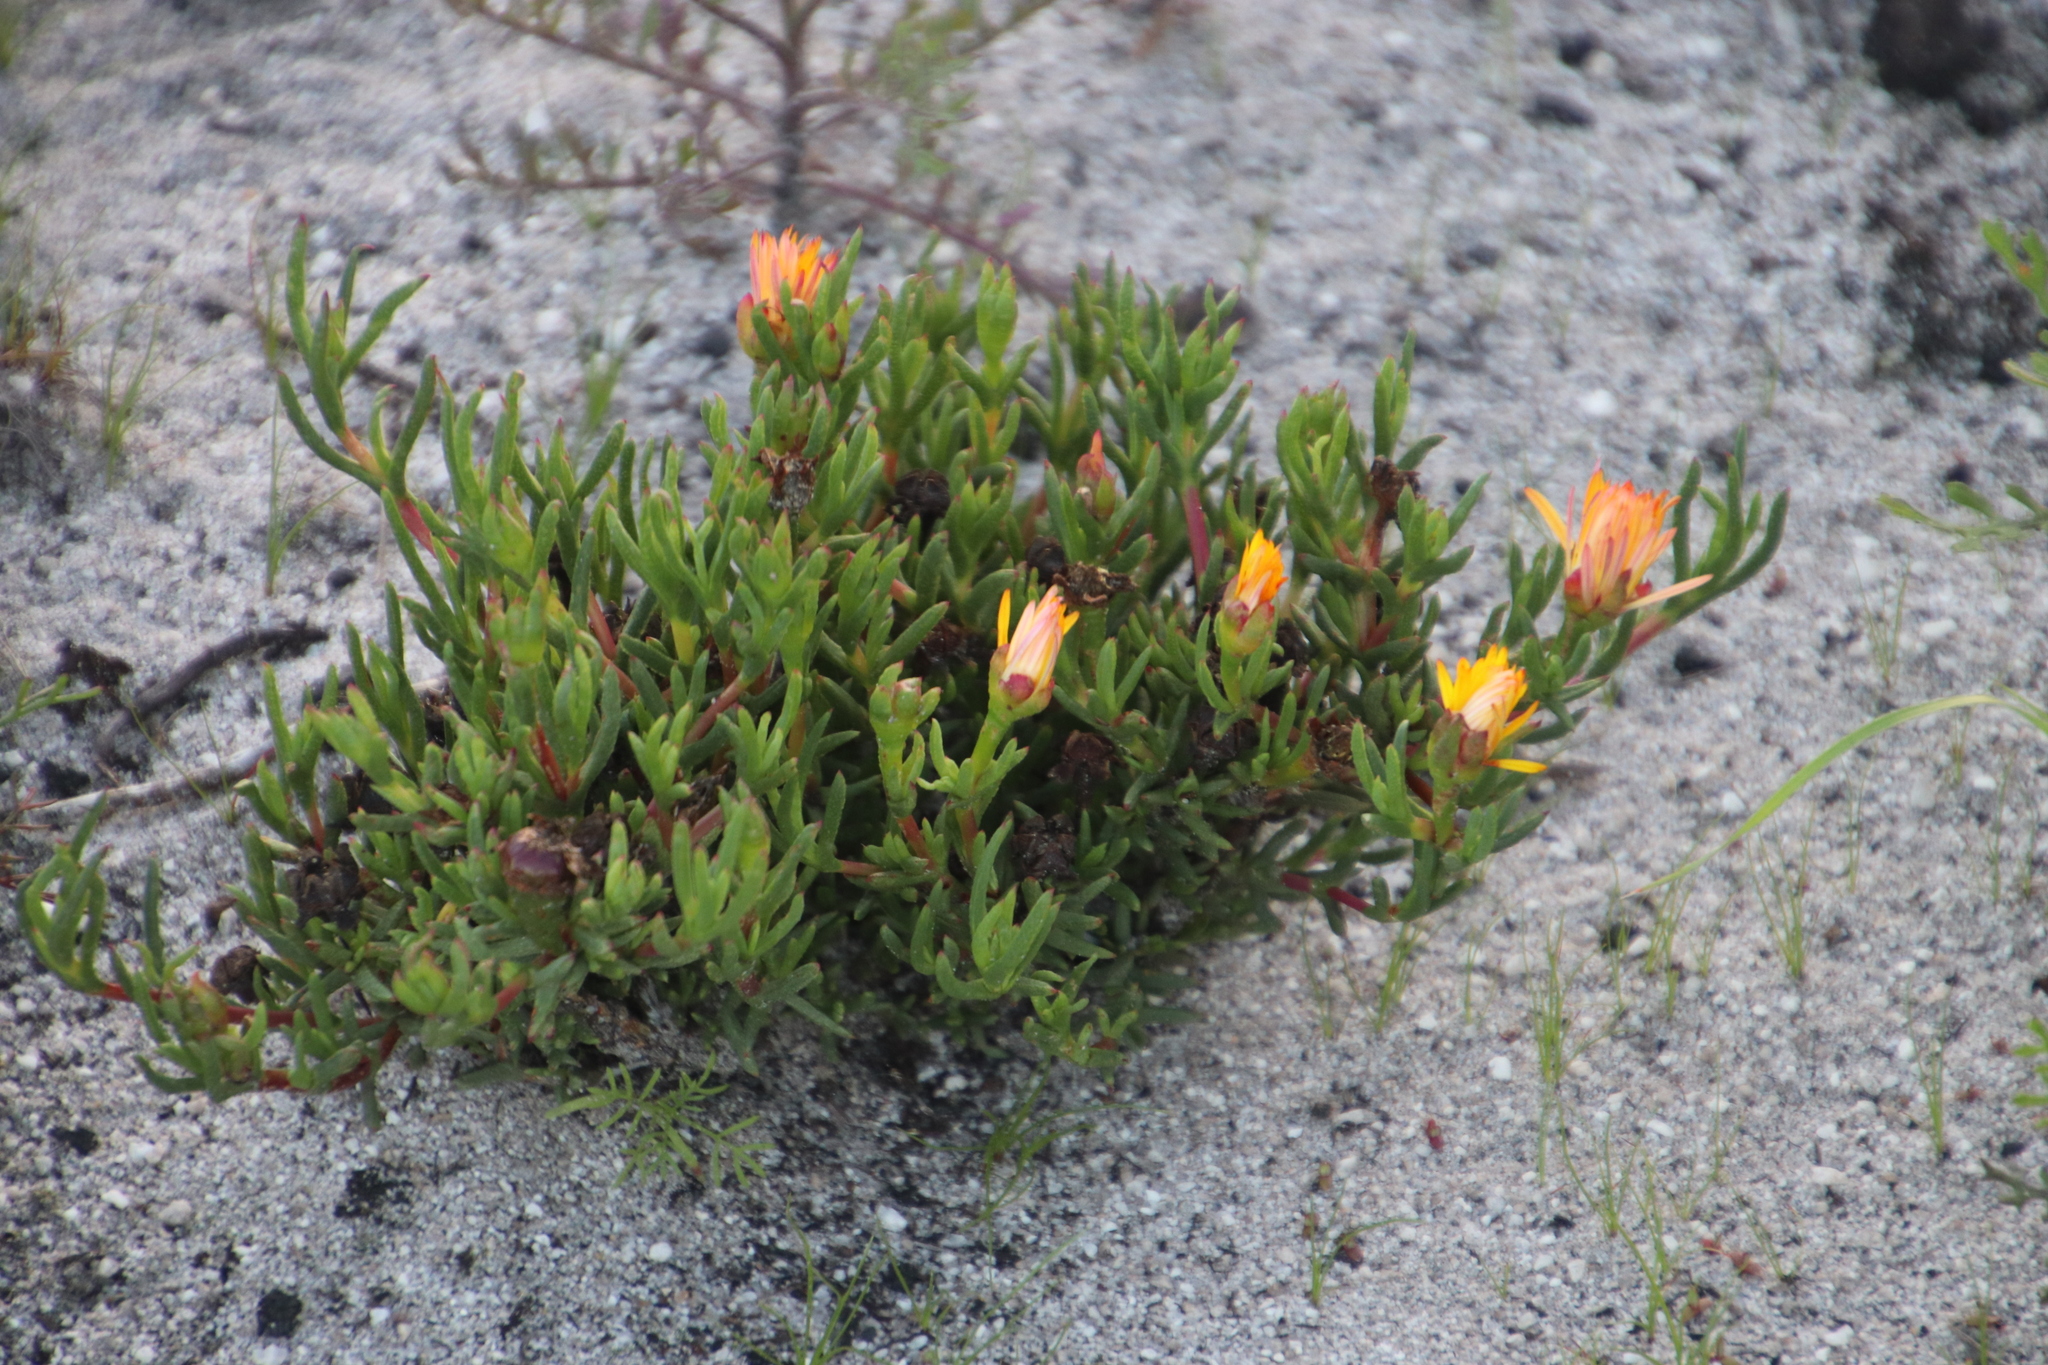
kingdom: Plantae
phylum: Tracheophyta
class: Magnoliopsida
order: Caryophyllales
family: Aizoaceae
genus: Lampranthus
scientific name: Lampranthus bicolor
